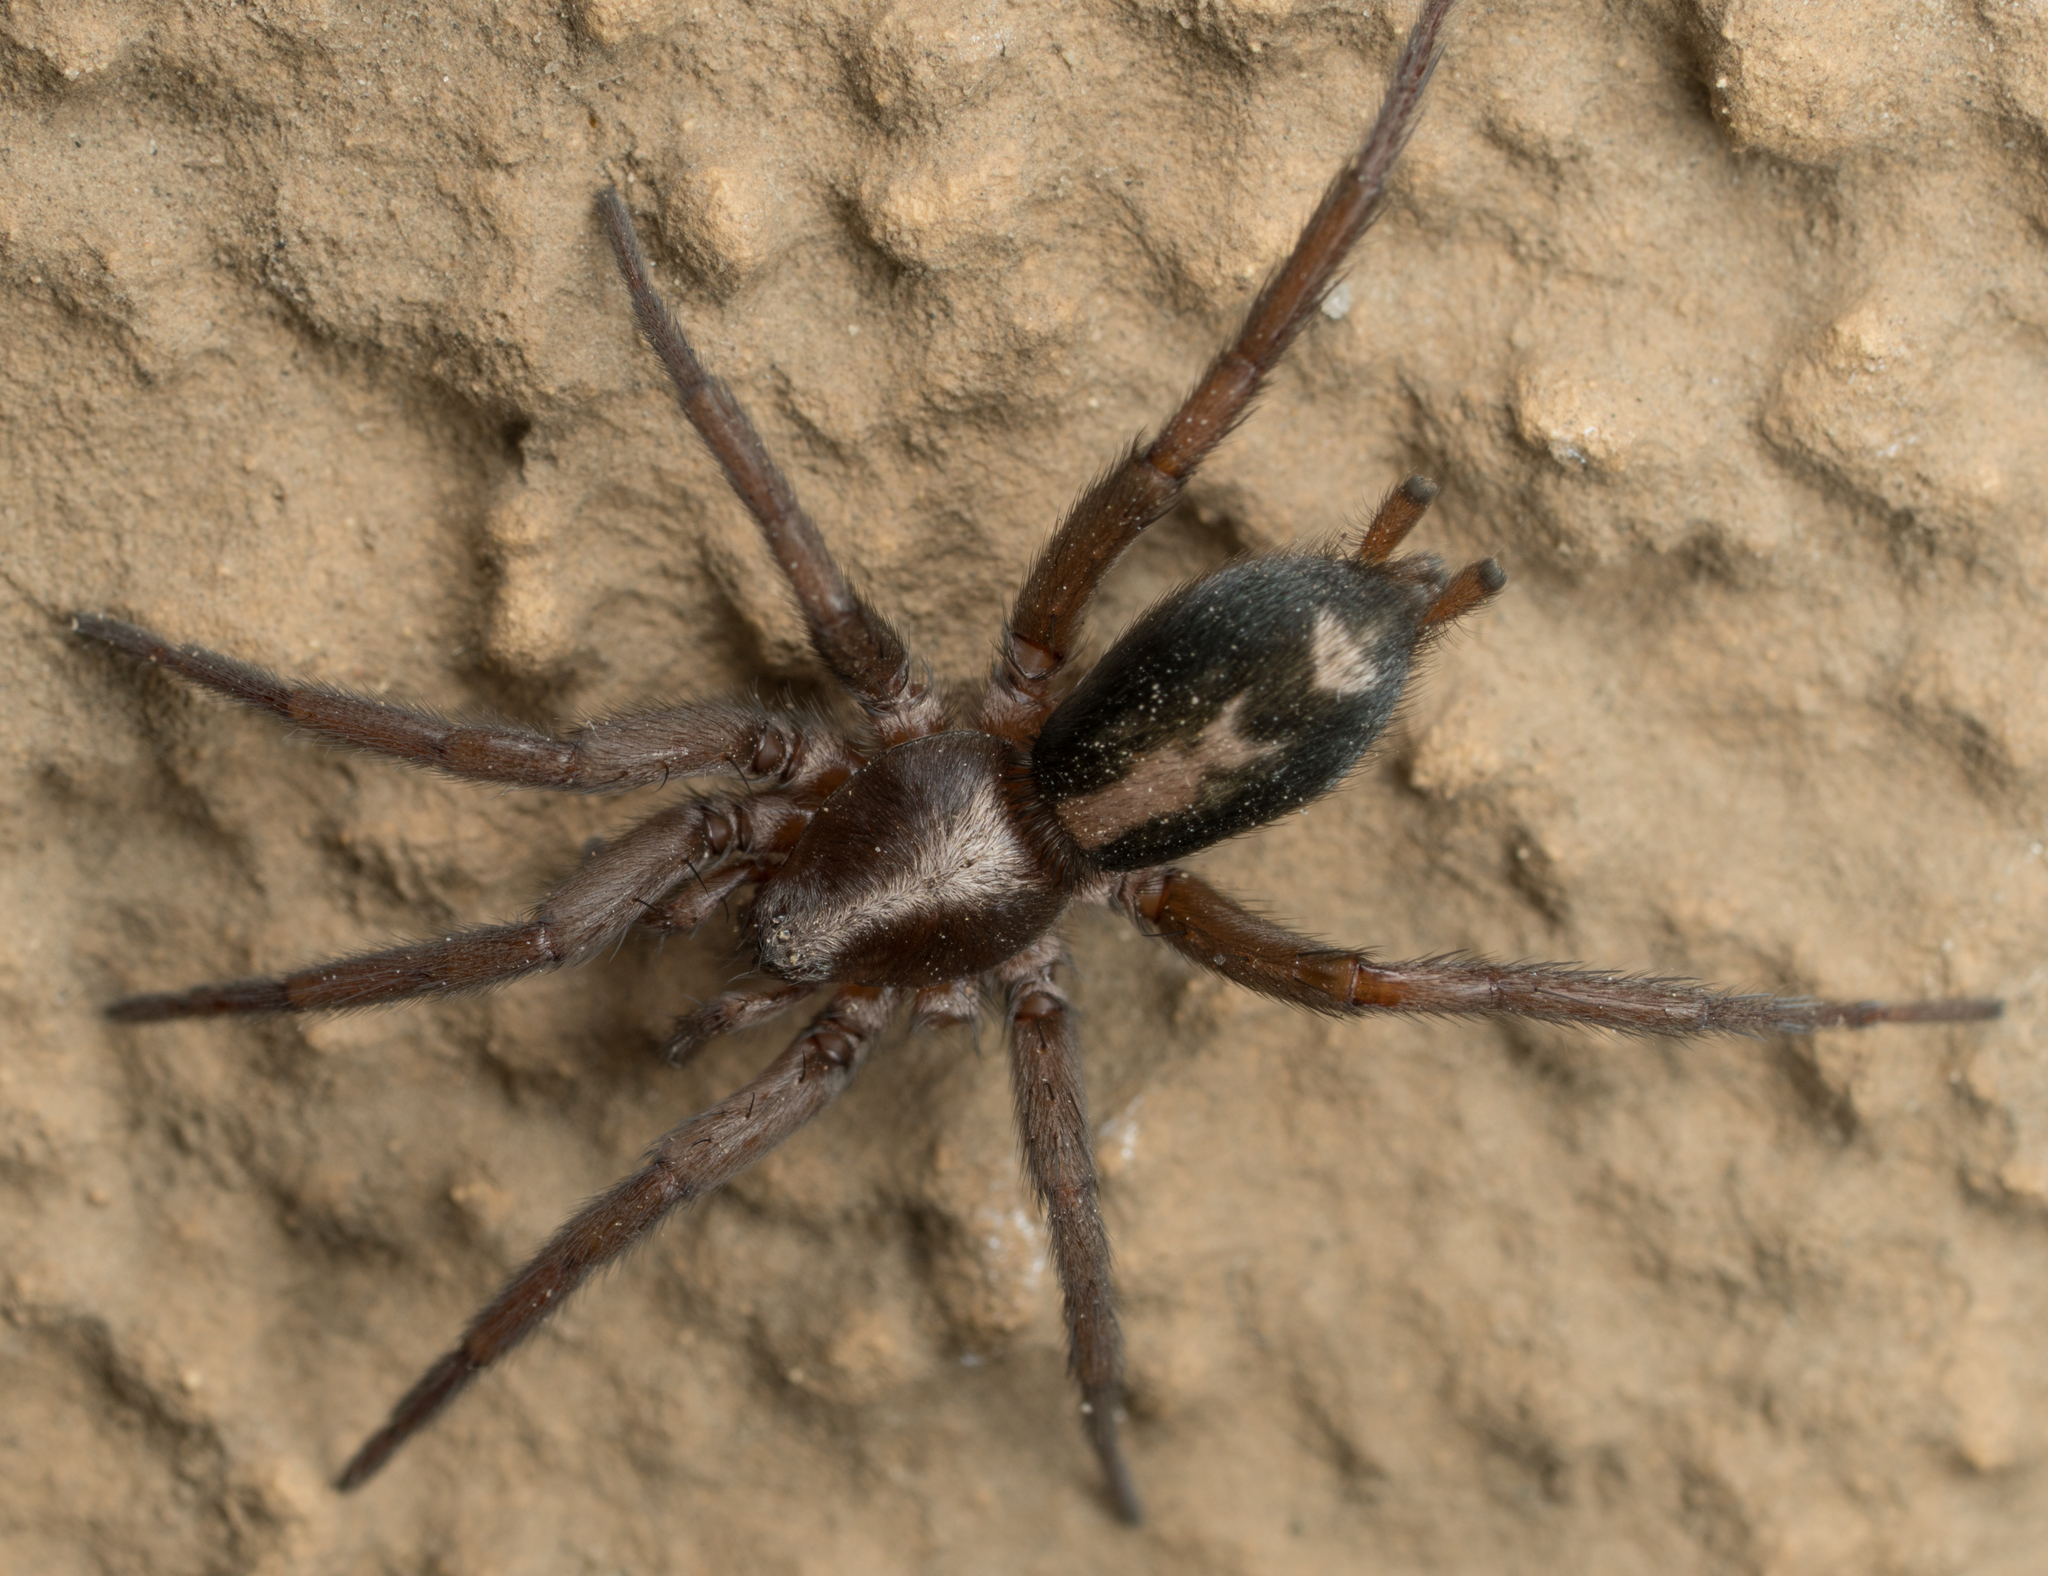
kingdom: Animalia
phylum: Arthropoda
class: Arachnida
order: Araneae
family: Gnaphosidae
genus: Herpyllus
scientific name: Herpyllus propinquus
